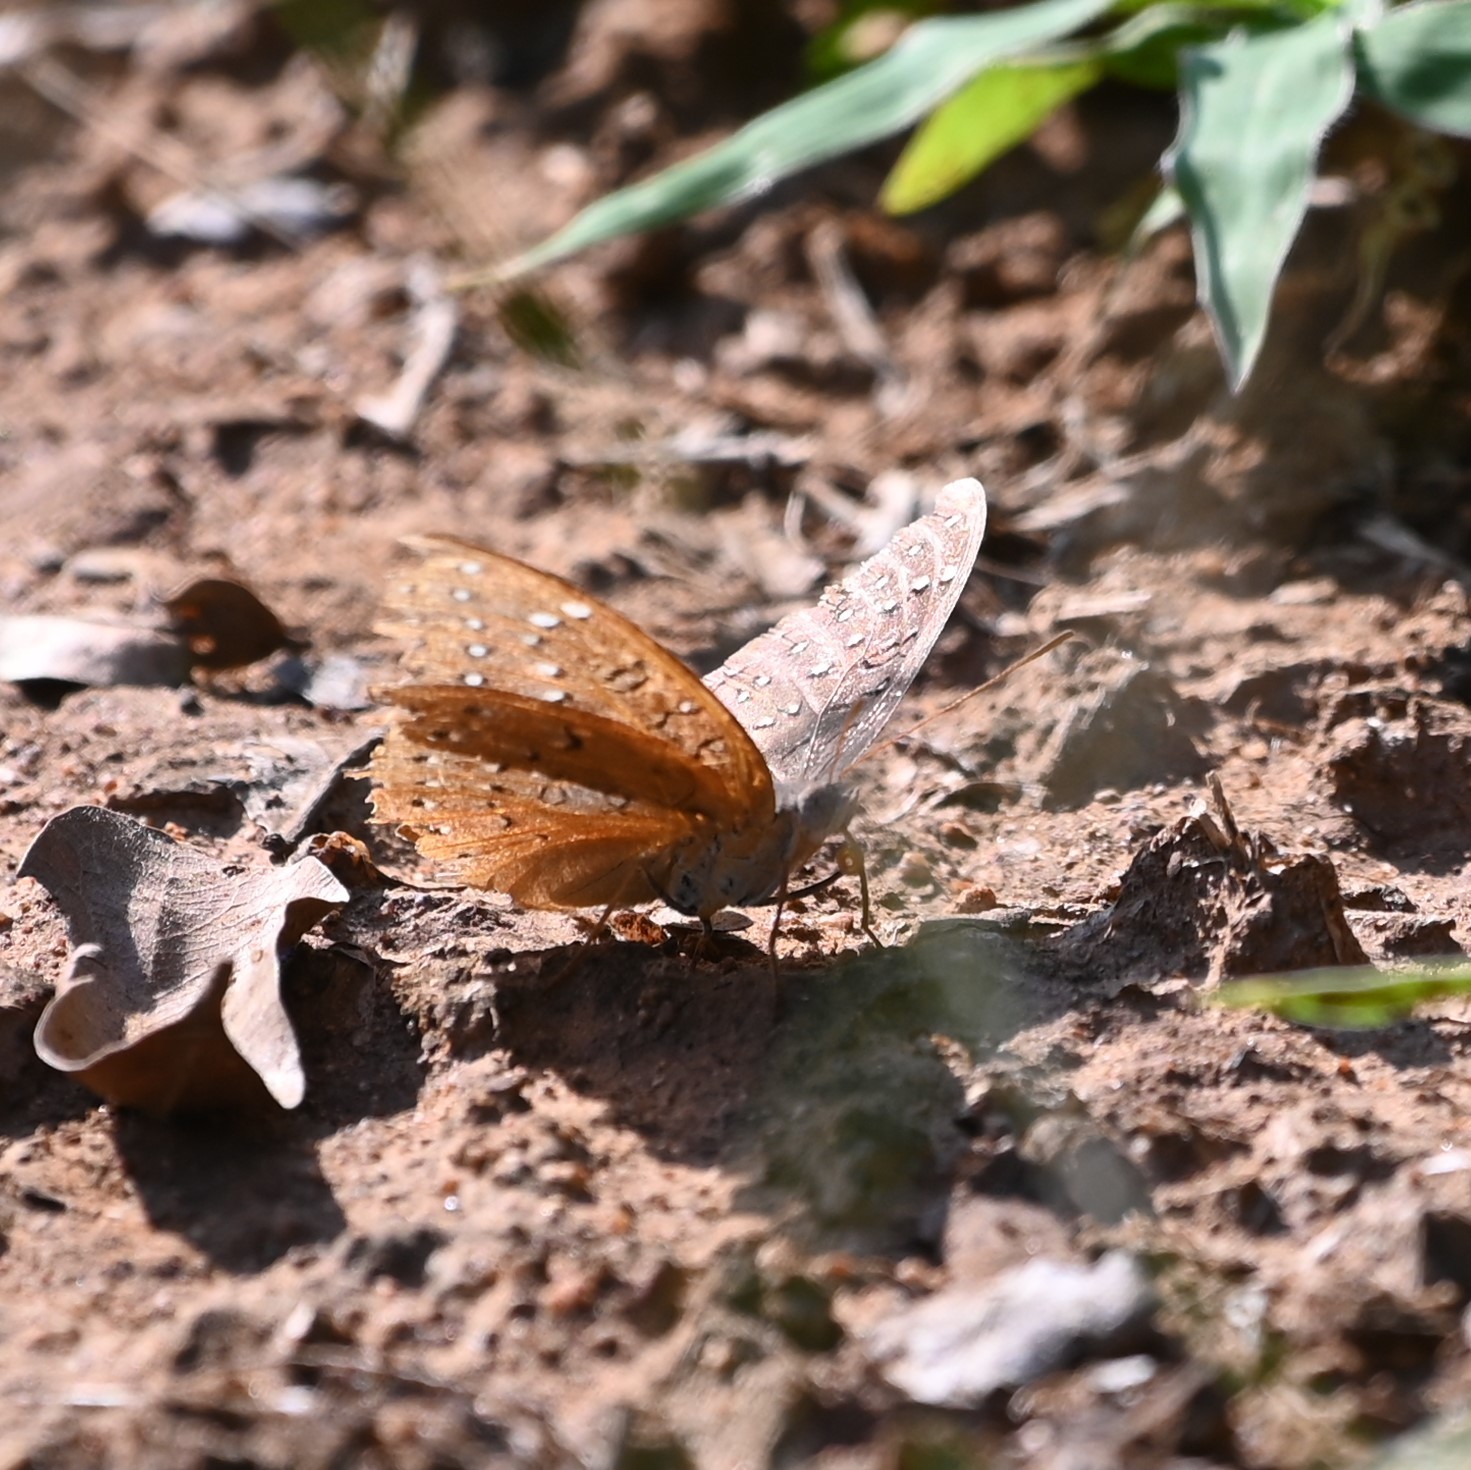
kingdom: Animalia
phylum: Arthropoda
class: Insecta
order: Lepidoptera
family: Nymphalidae
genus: Hamanumida
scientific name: Hamanumida daedalus
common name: Guinea-fowl butterfly
